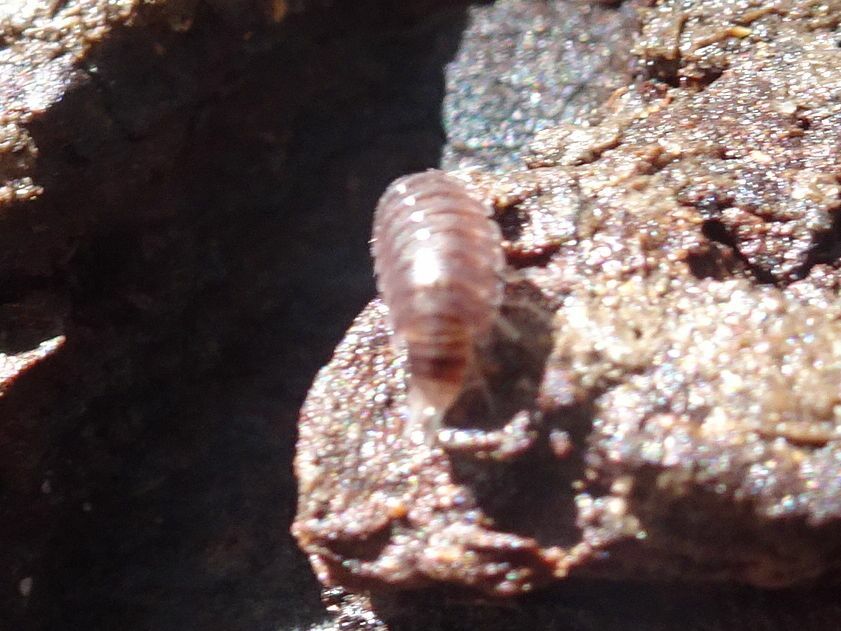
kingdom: Animalia
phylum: Arthropoda
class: Malacostraca
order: Isopoda
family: Trichoniscidae
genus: Hyloniscus
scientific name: Hyloniscus riparius
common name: Isopod
